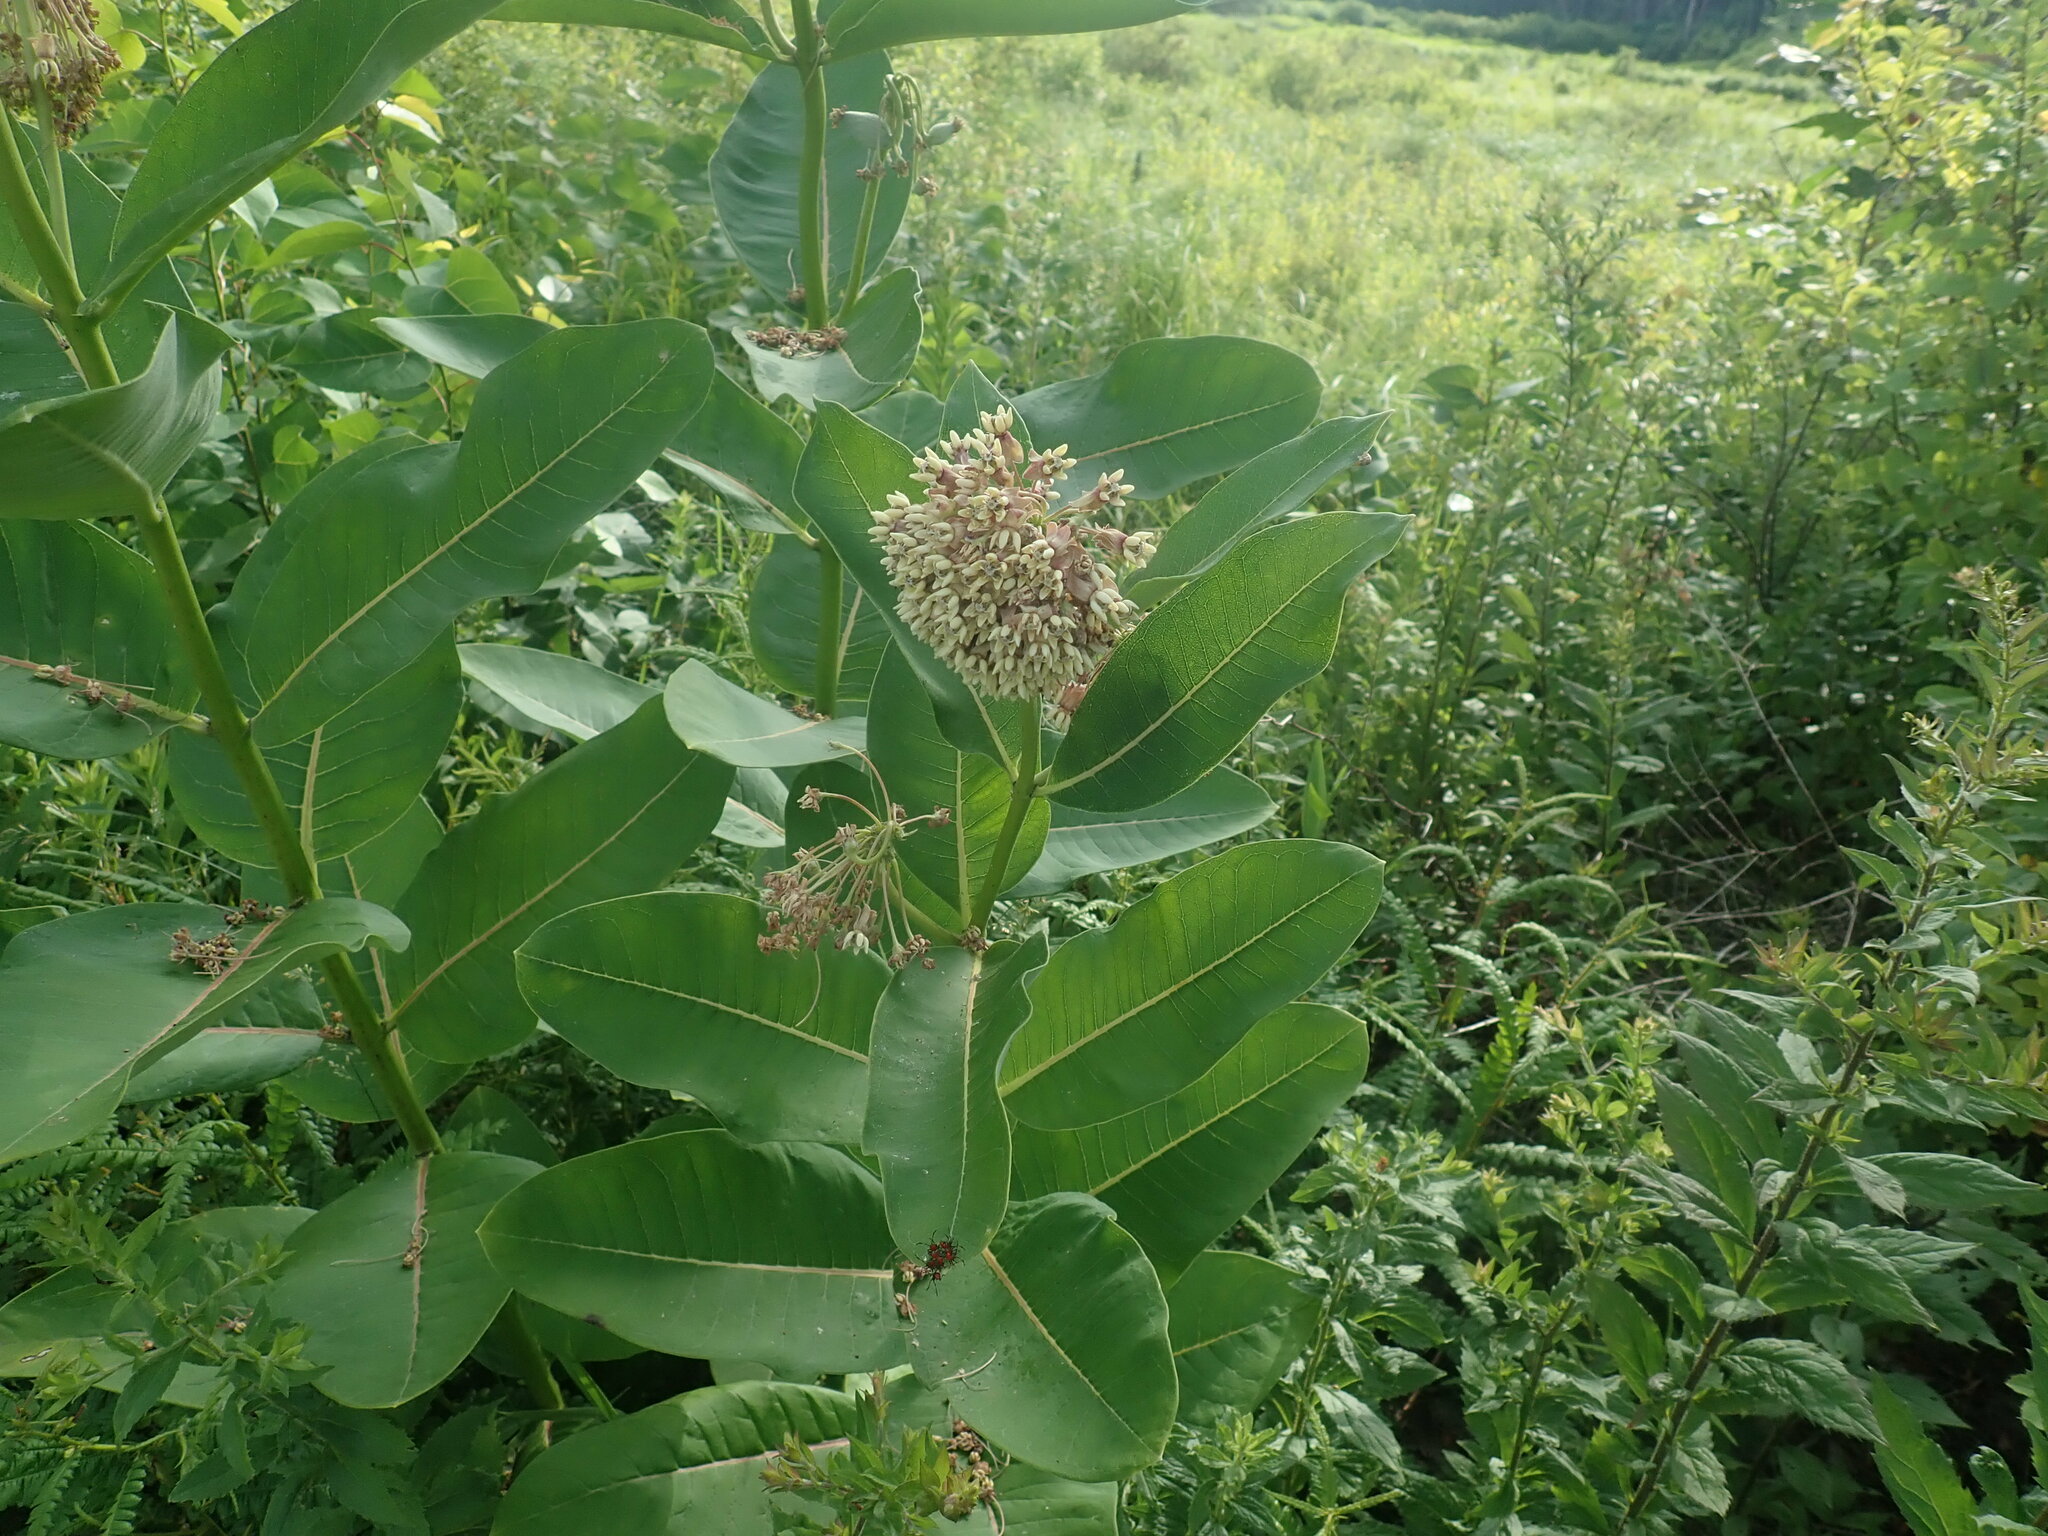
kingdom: Plantae
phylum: Tracheophyta
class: Magnoliopsida
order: Gentianales
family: Apocynaceae
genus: Asclepias
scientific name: Asclepias syriaca
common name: Common milkweed
